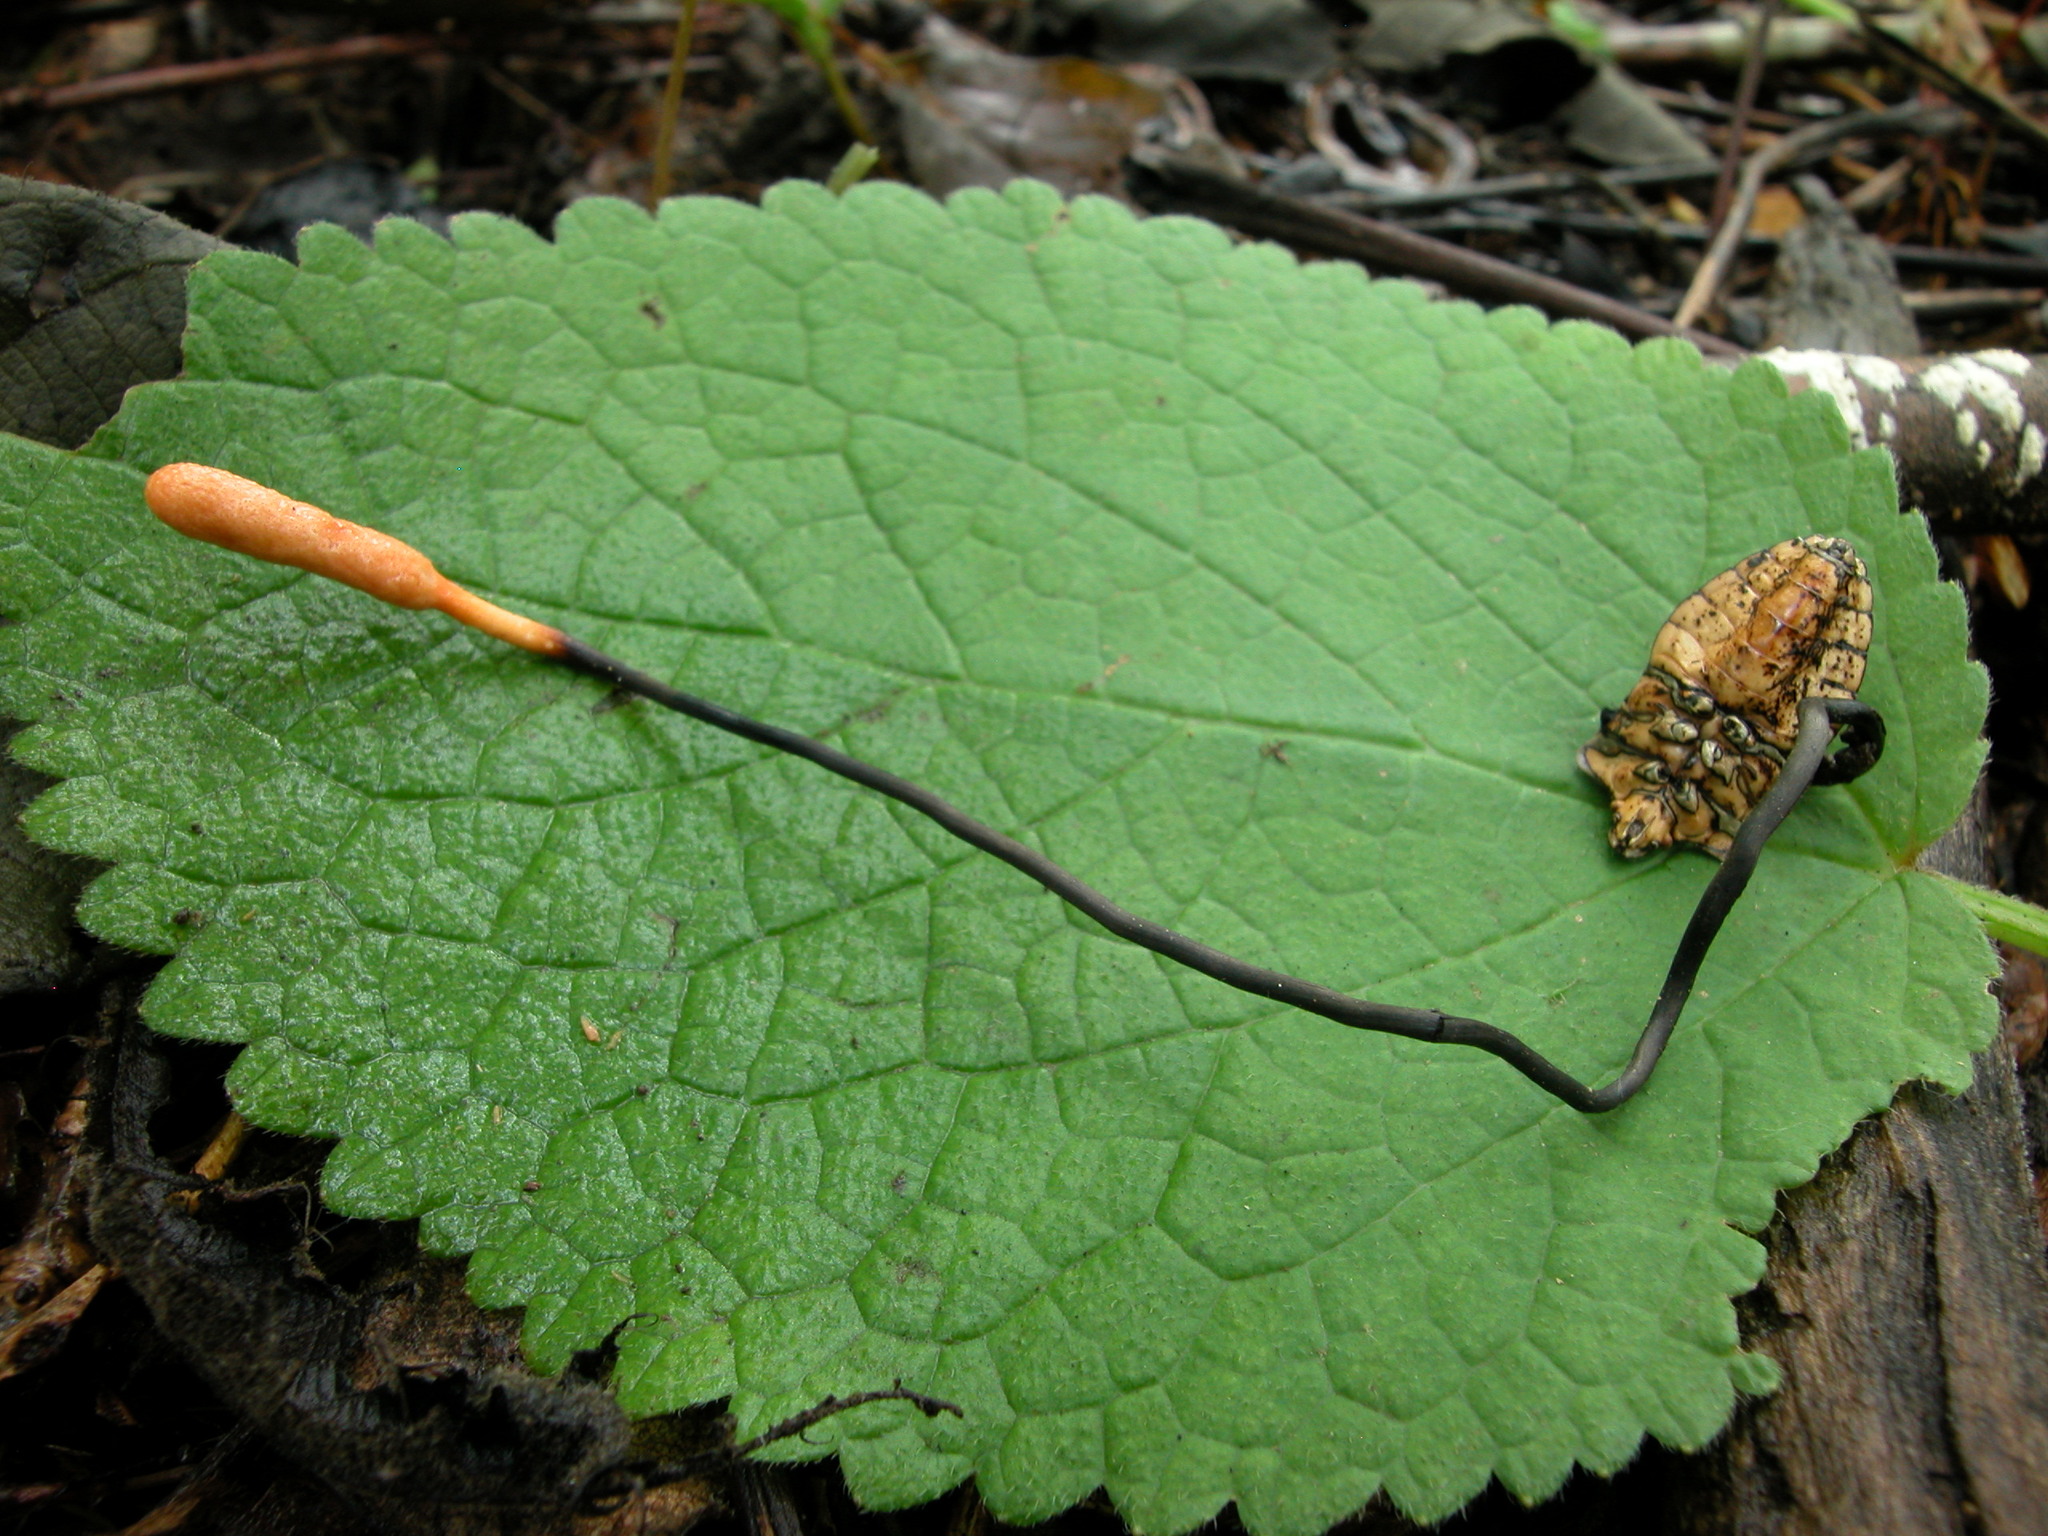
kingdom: Fungi
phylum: Ascomycota
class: Sordariomycetes
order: Hypocreales
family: Ophiocordycipitaceae
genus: Ophiocordyceps
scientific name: Ophiocordyceps nutans
